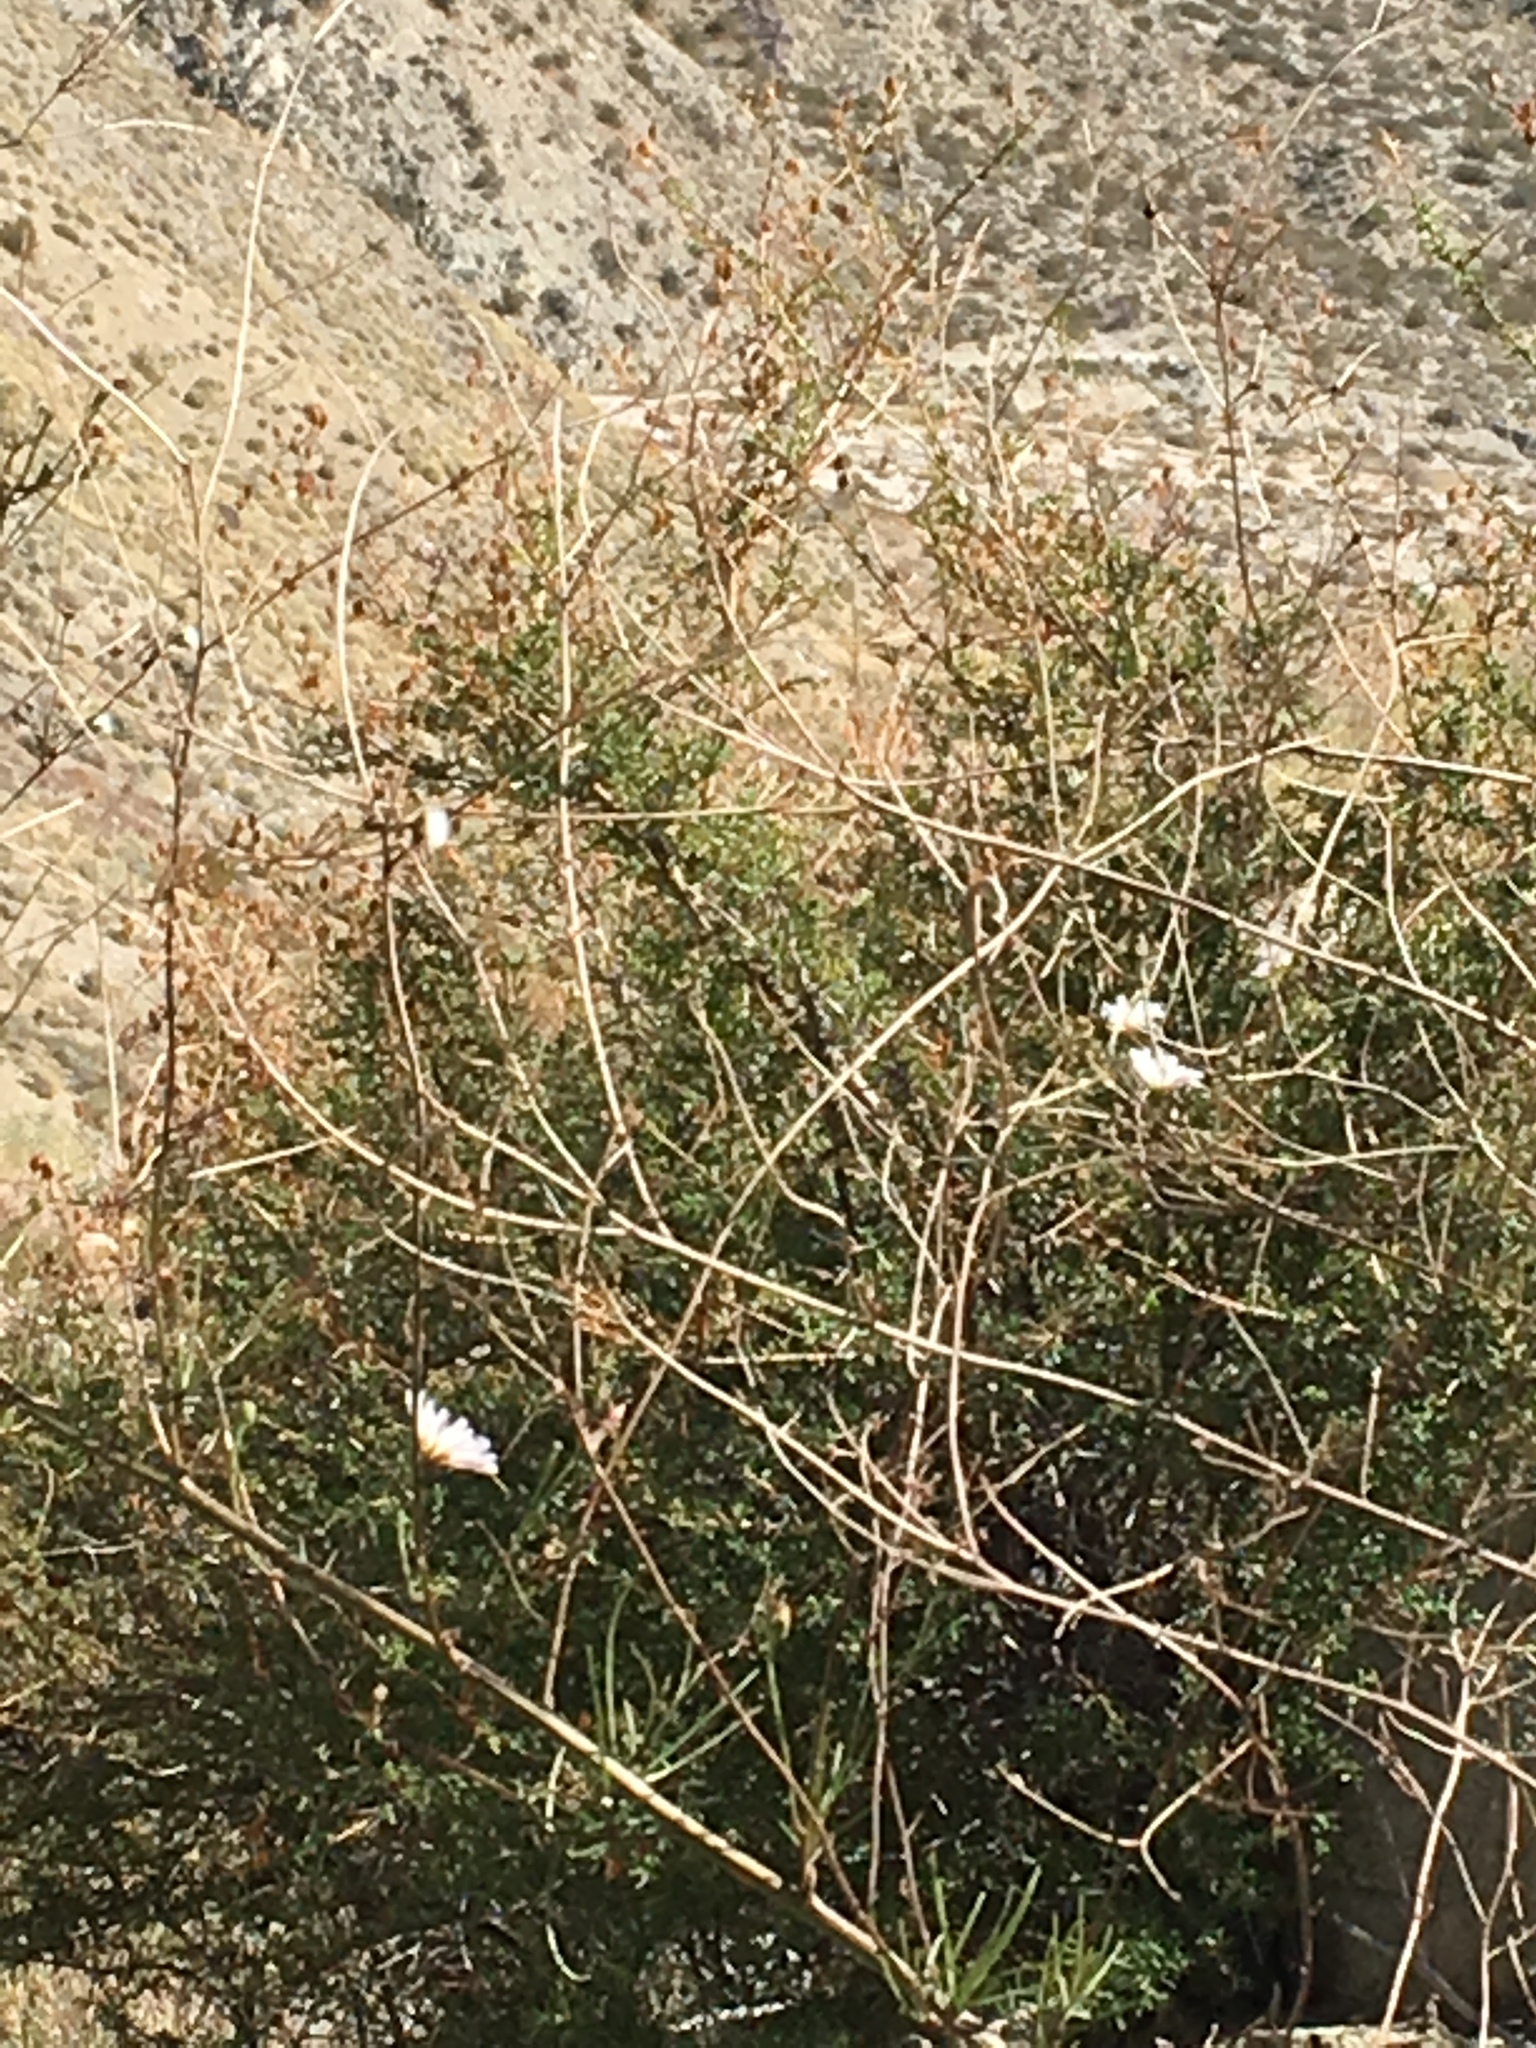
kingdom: Plantae
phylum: Tracheophyta
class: Magnoliopsida
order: Asterales
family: Asteraceae
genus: Malacothrix
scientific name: Malacothrix saxatilis
